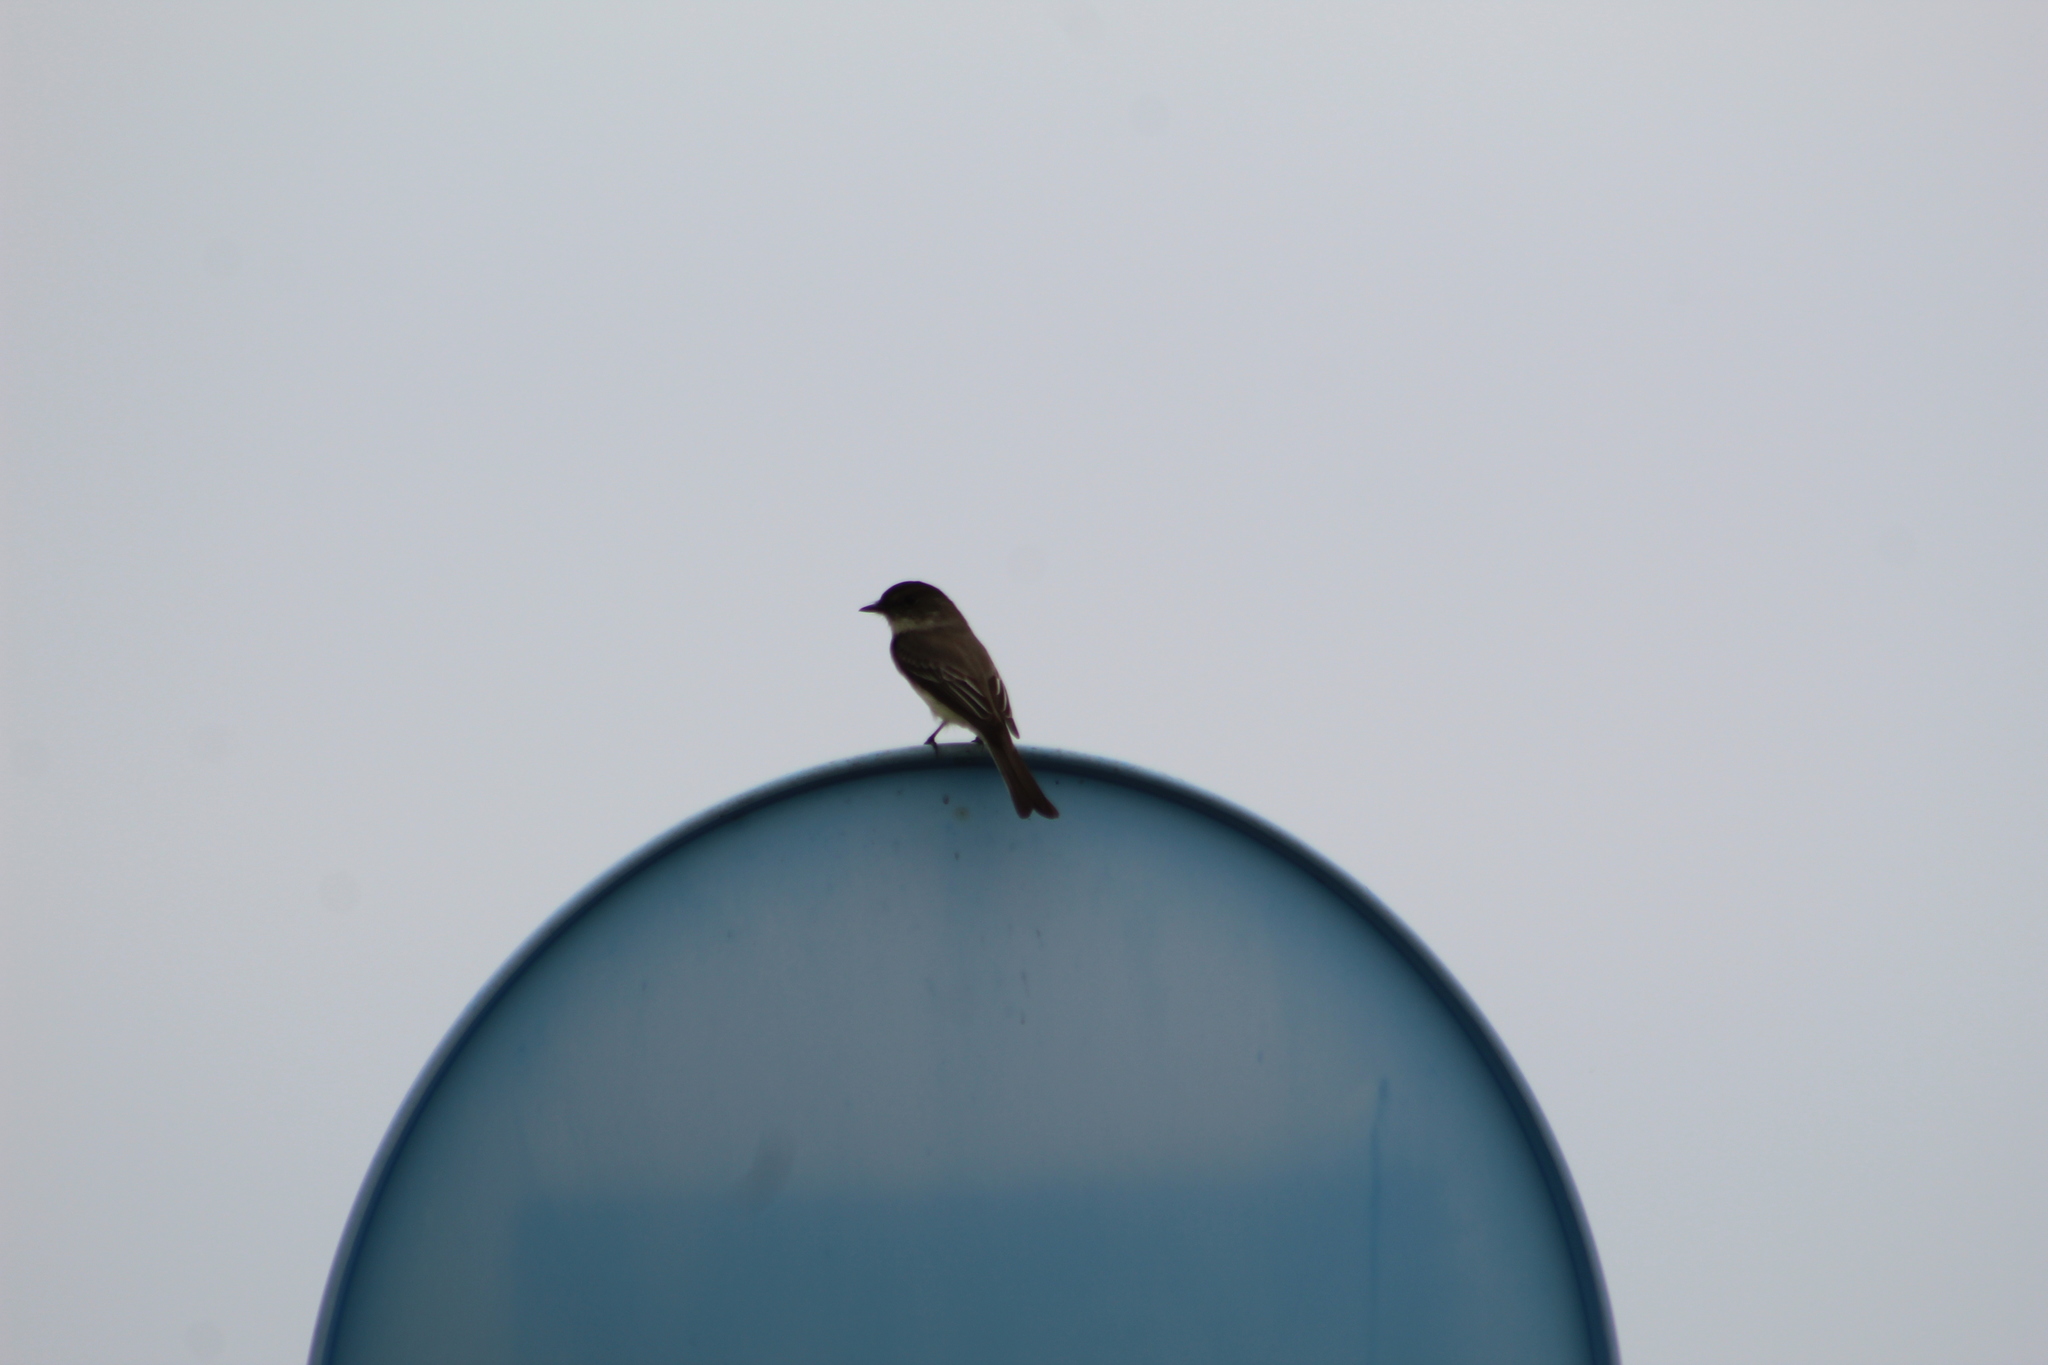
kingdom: Animalia
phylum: Chordata
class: Aves
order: Passeriformes
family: Tyrannidae
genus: Sayornis
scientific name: Sayornis phoebe
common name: Eastern phoebe
